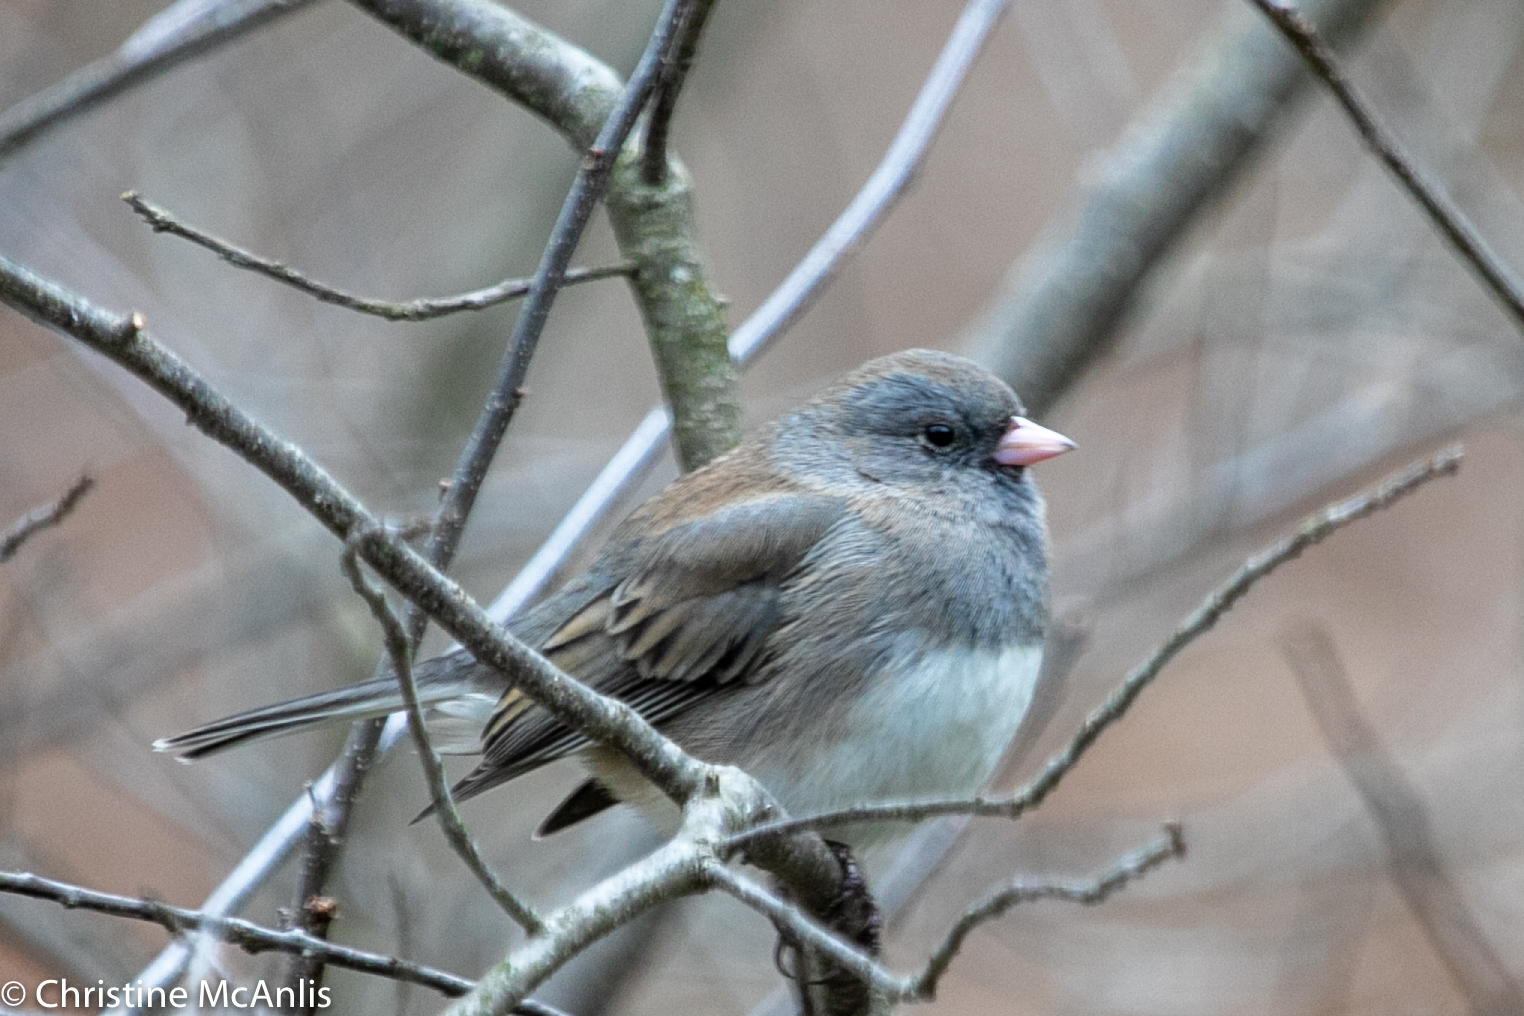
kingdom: Animalia
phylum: Chordata
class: Aves
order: Passeriformes
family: Passerellidae
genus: Junco
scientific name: Junco hyemalis
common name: Dark-eyed junco
